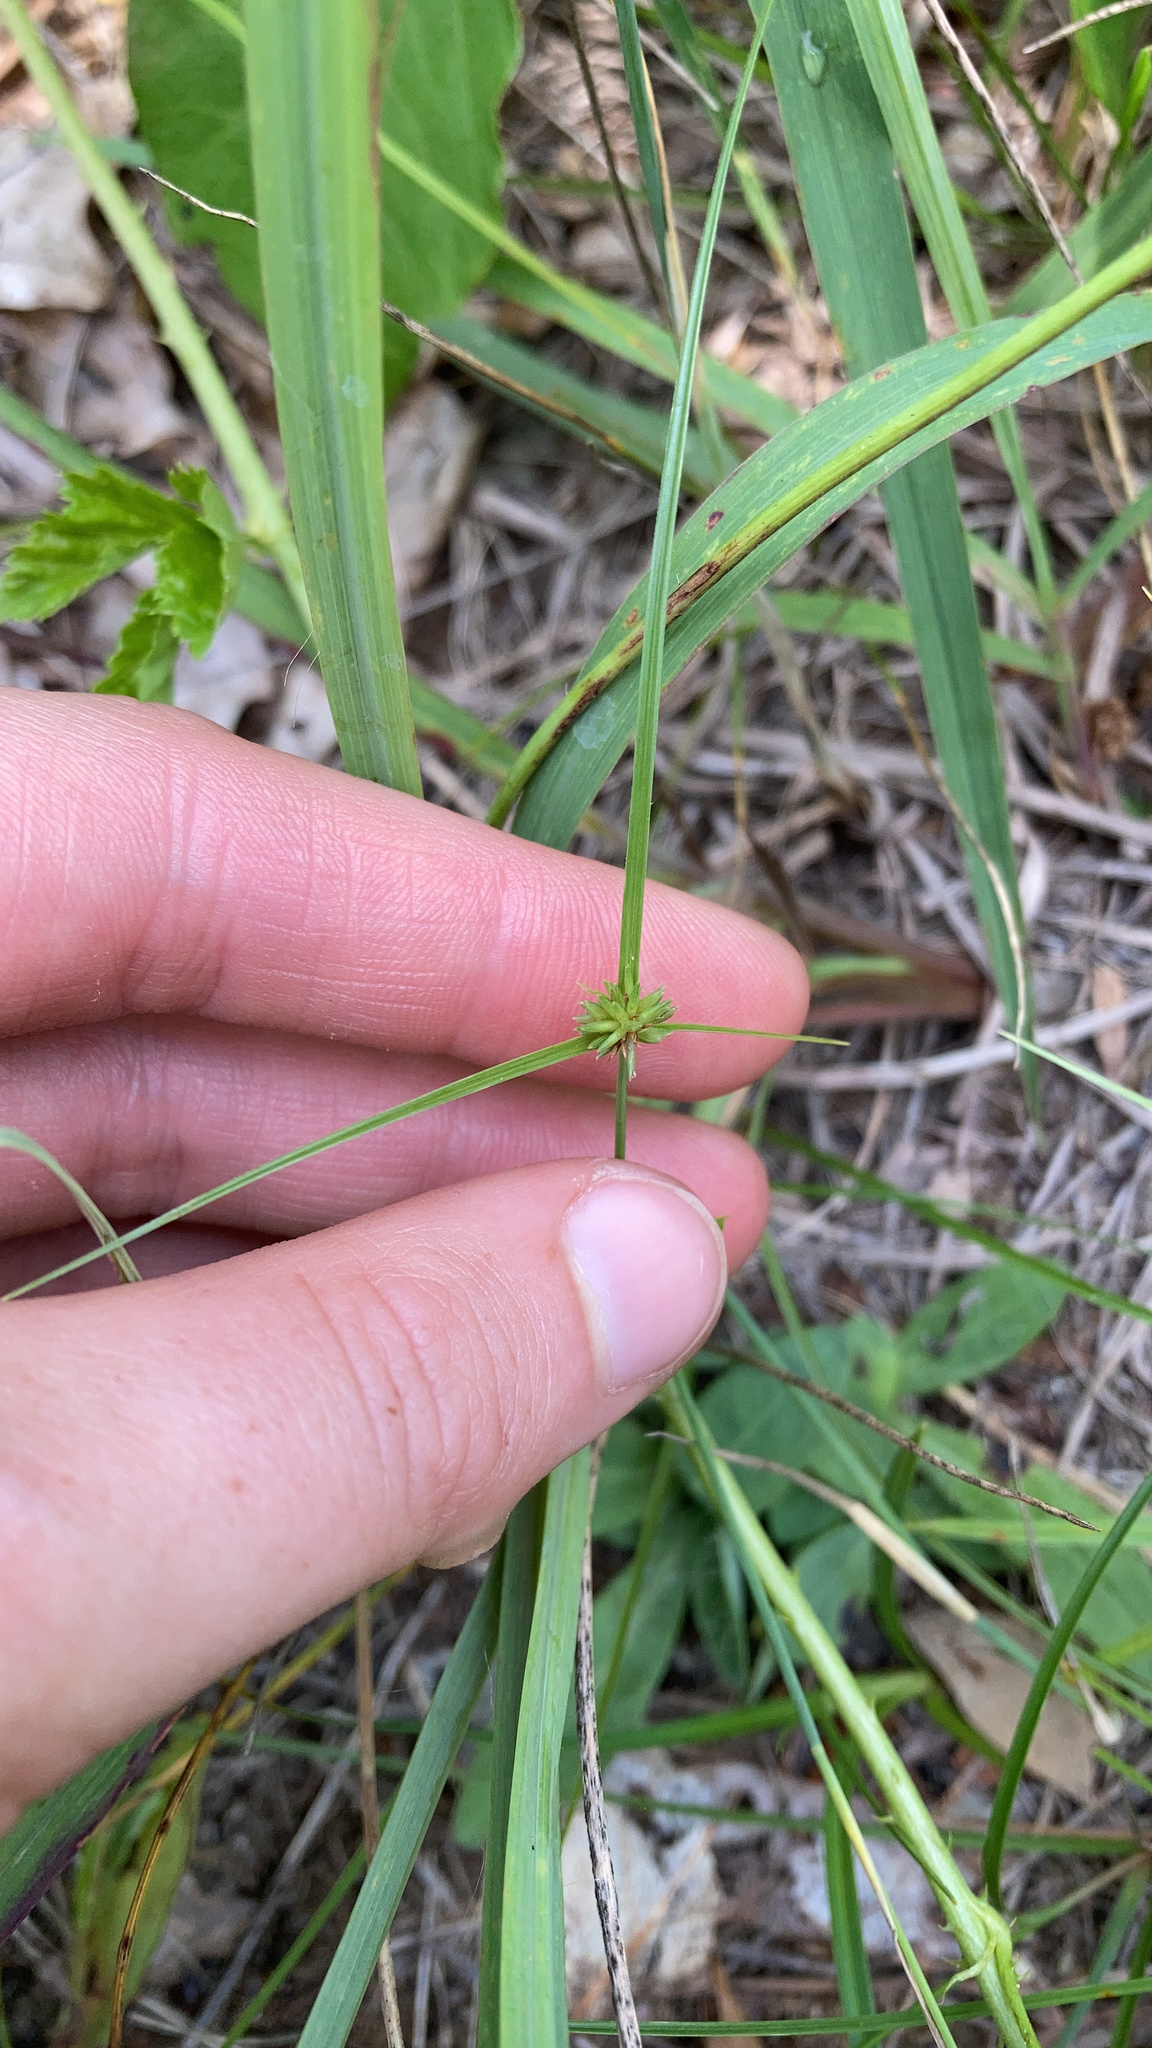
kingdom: Plantae
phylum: Tracheophyta
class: Liliopsida
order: Poales
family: Cyperaceae
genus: Cyperus
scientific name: Cyperus lupulinus
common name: Great plains flatsedge
